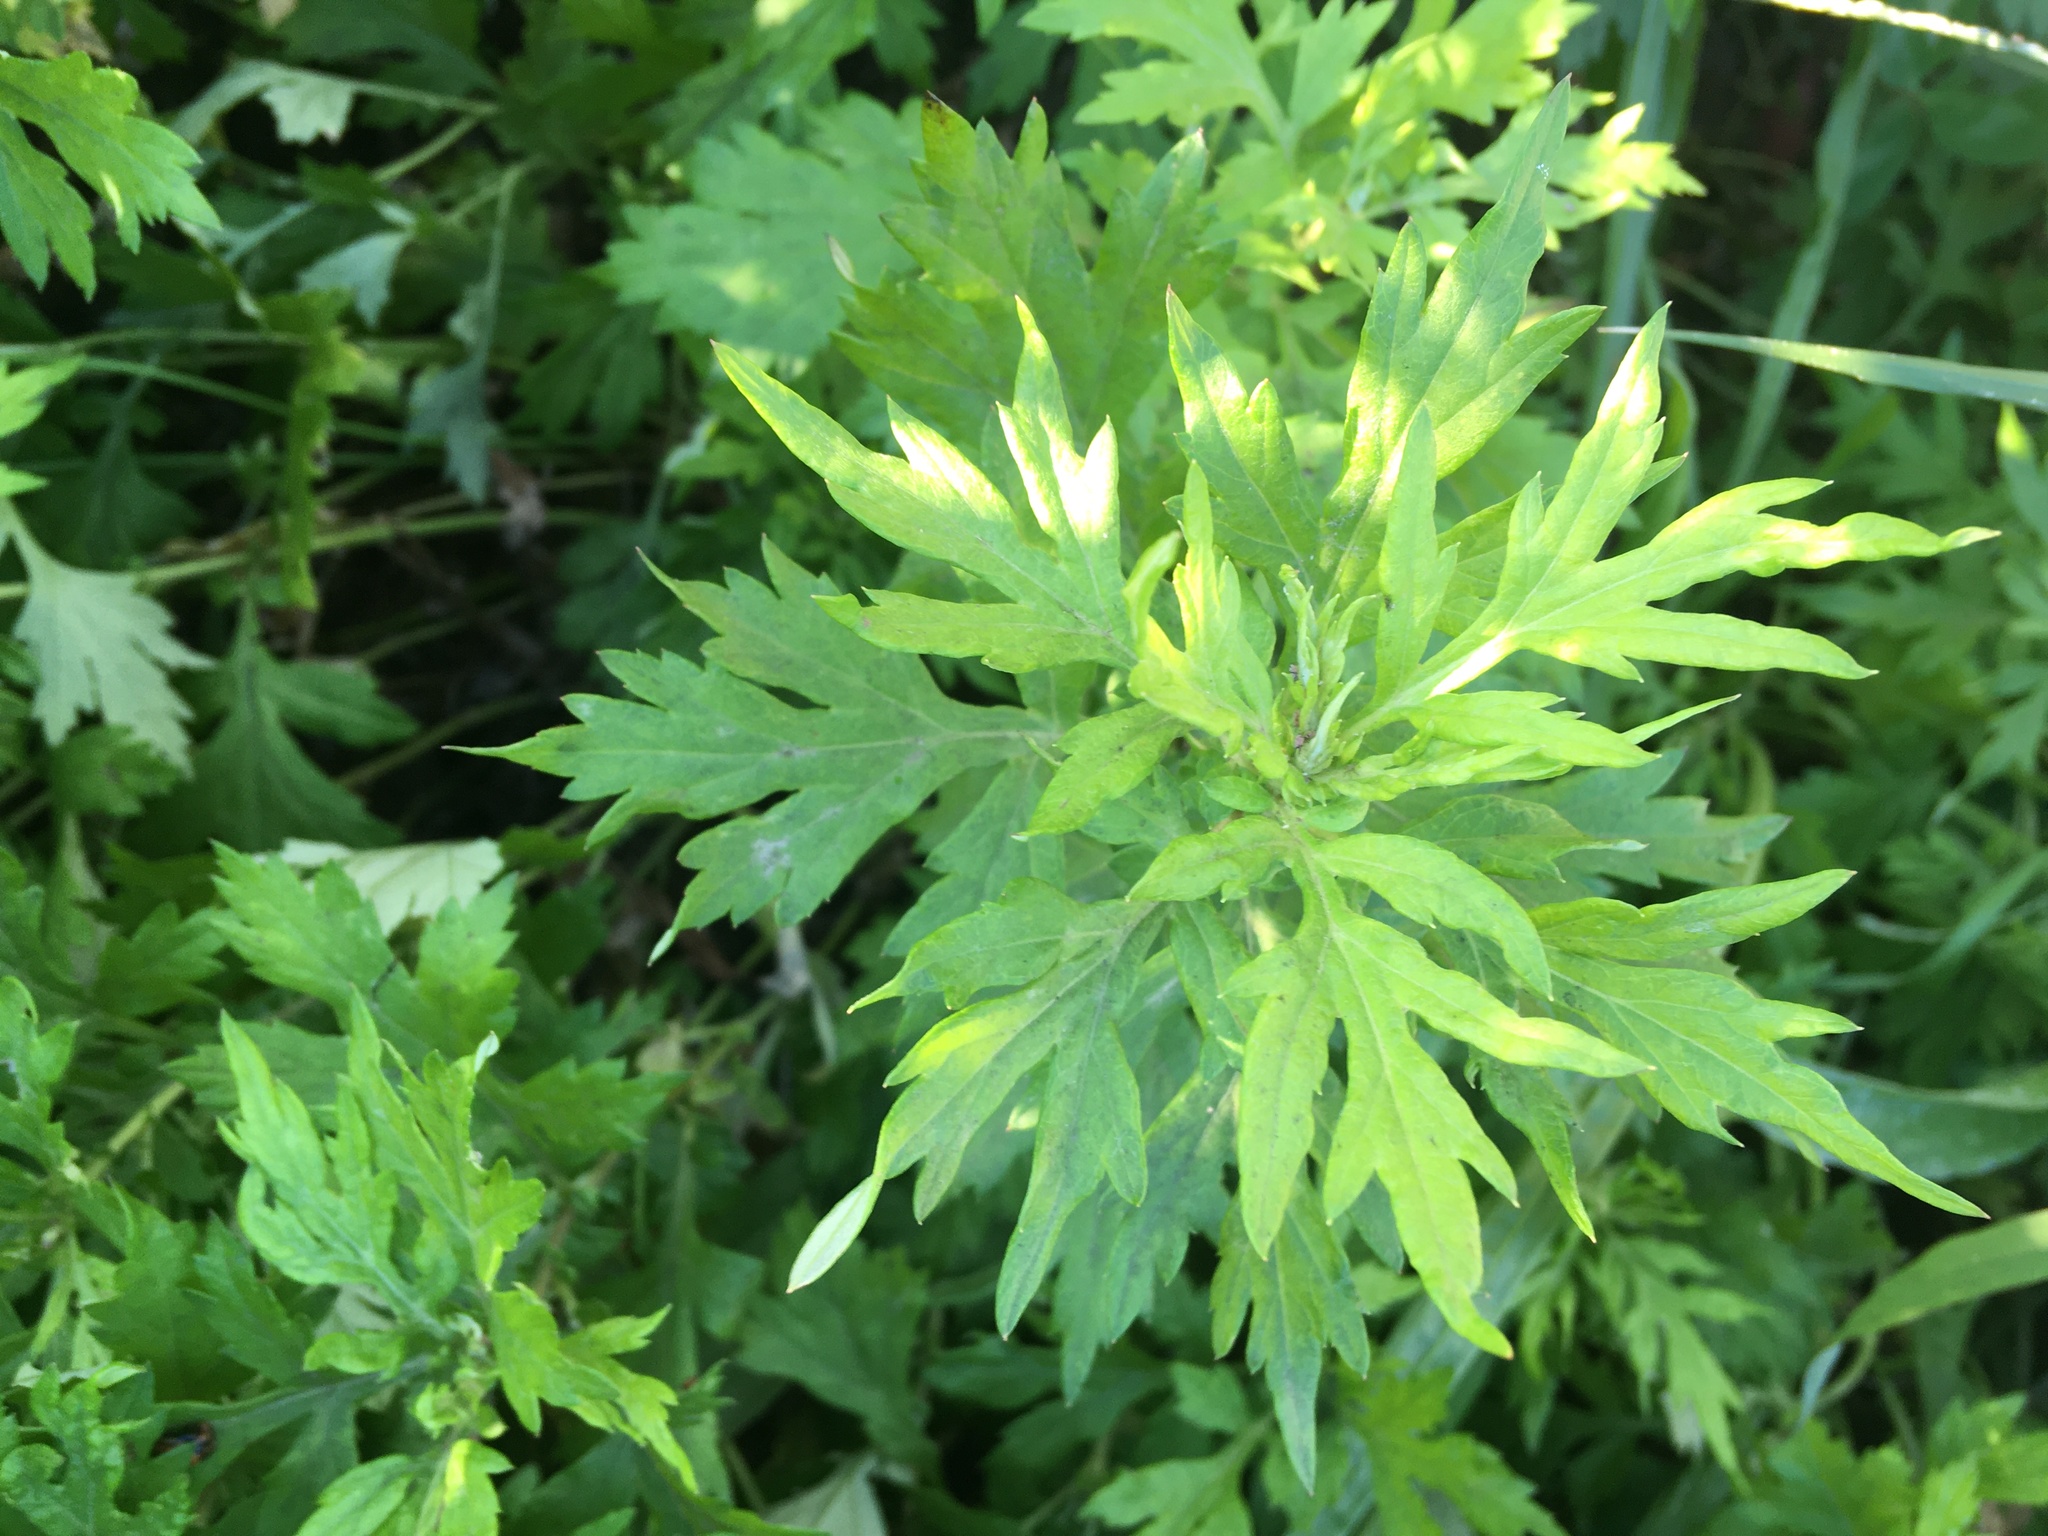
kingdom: Plantae
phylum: Tracheophyta
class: Magnoliopsida
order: Asterales
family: Asteraceae
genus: Artemisia
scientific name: Artemisia vulgaris
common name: Mugwort
